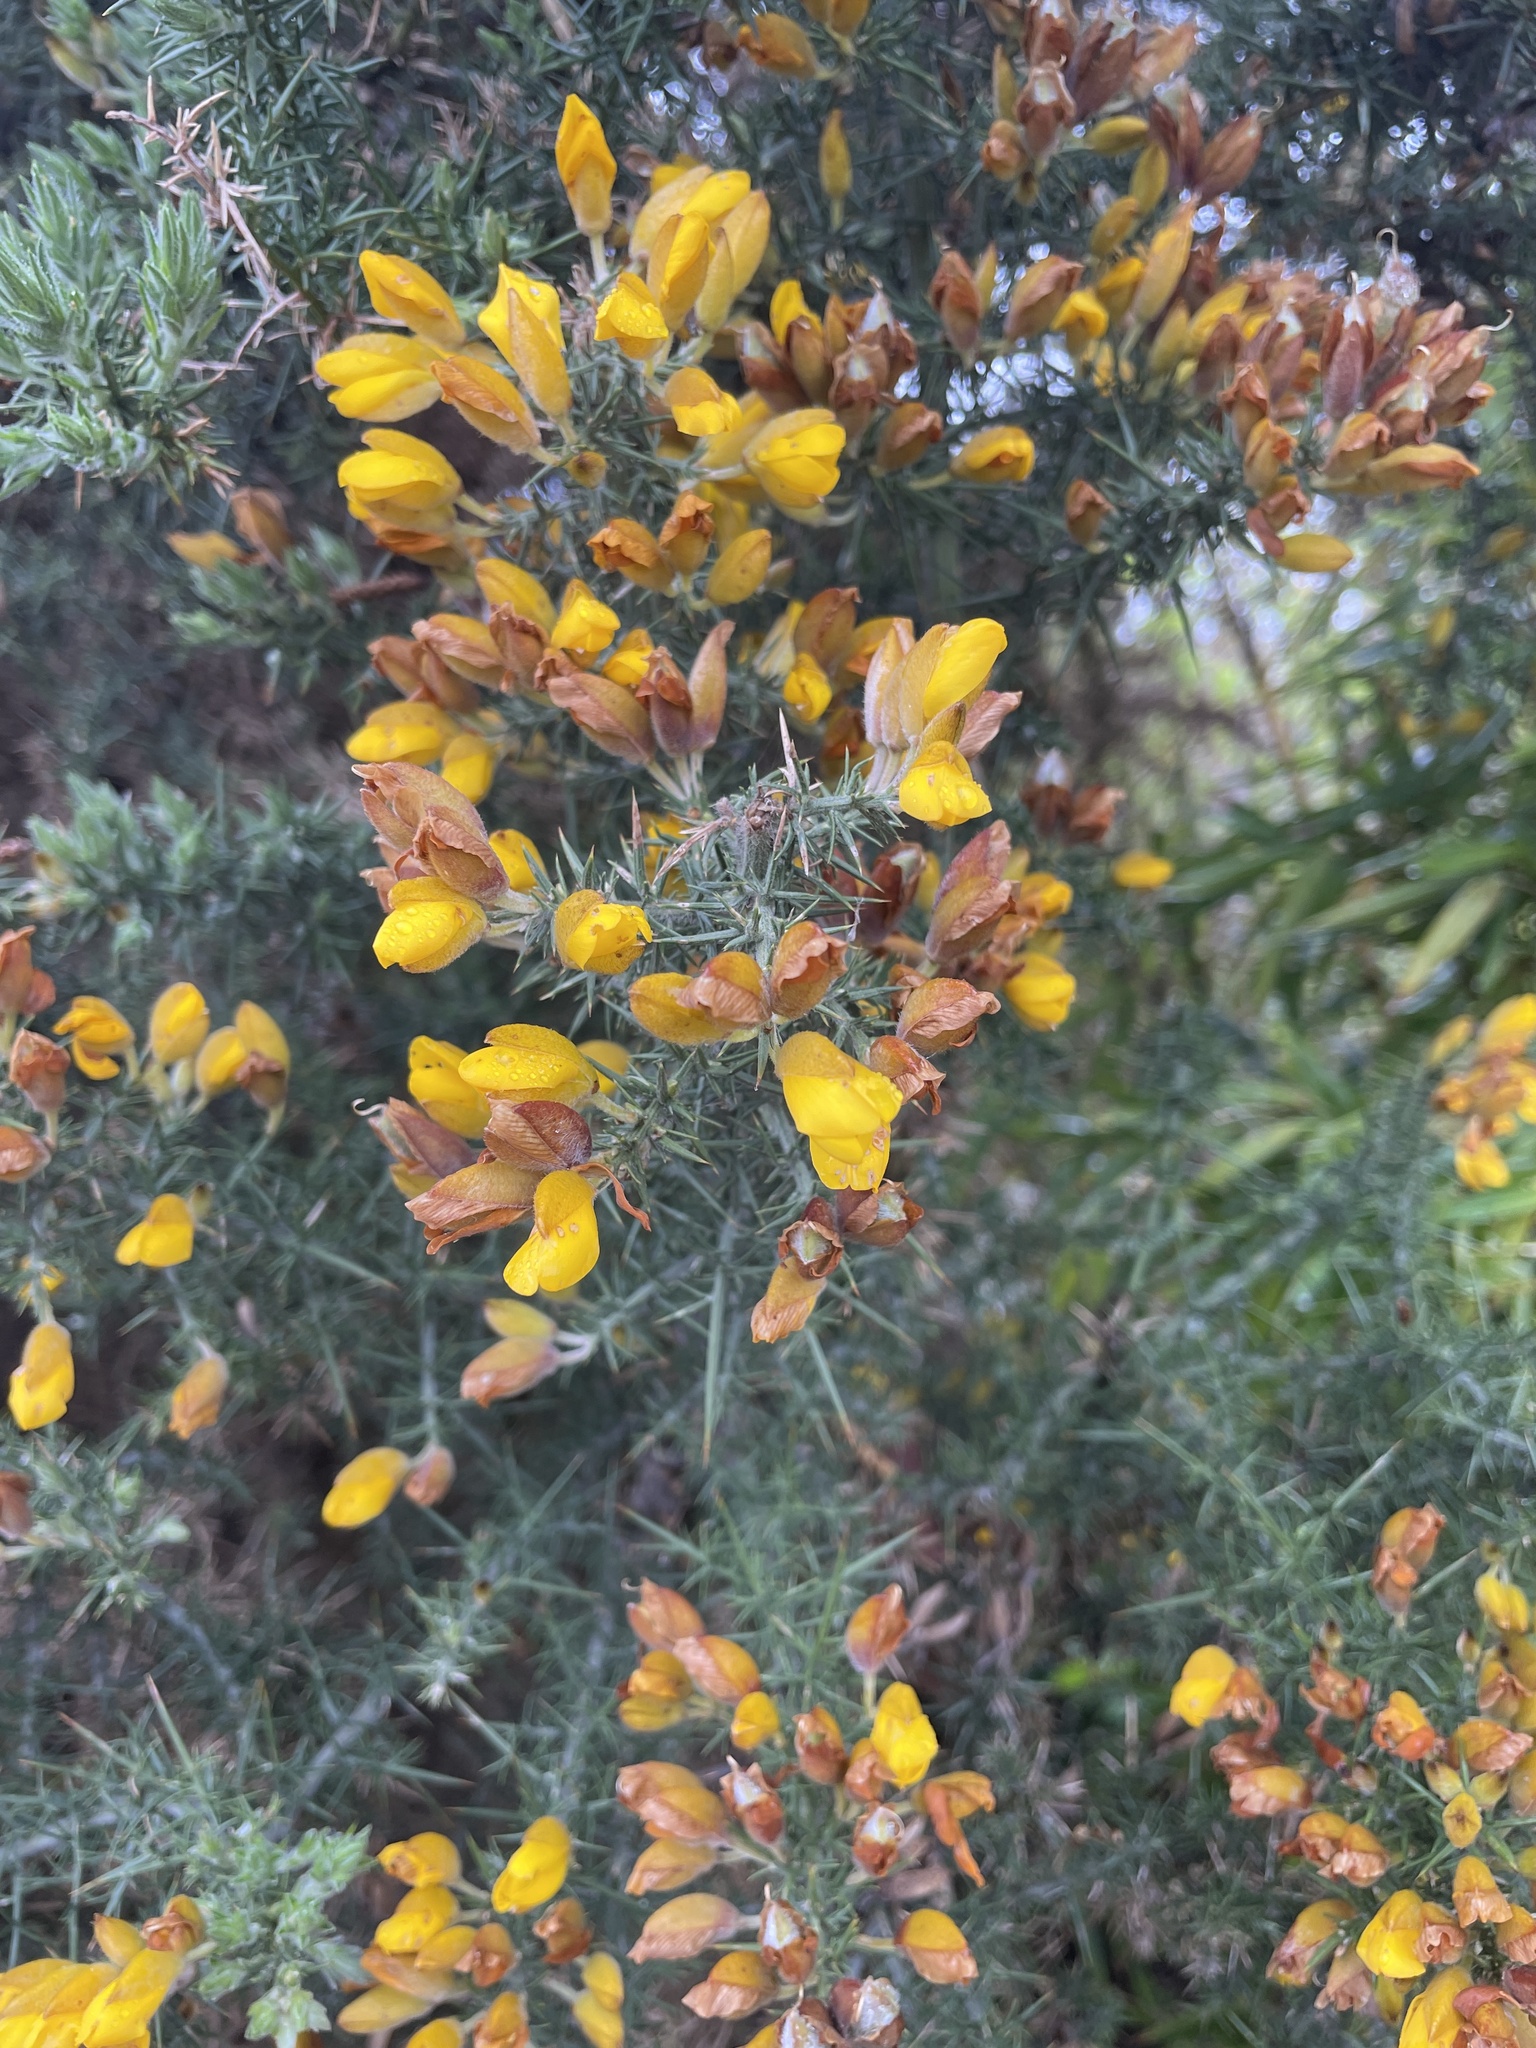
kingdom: Plantae
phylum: Tracheophyta
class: Magnoliopsida
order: Fabales
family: Fabaceae
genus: Ulex
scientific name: Ulex europaeus
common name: Common gorse
